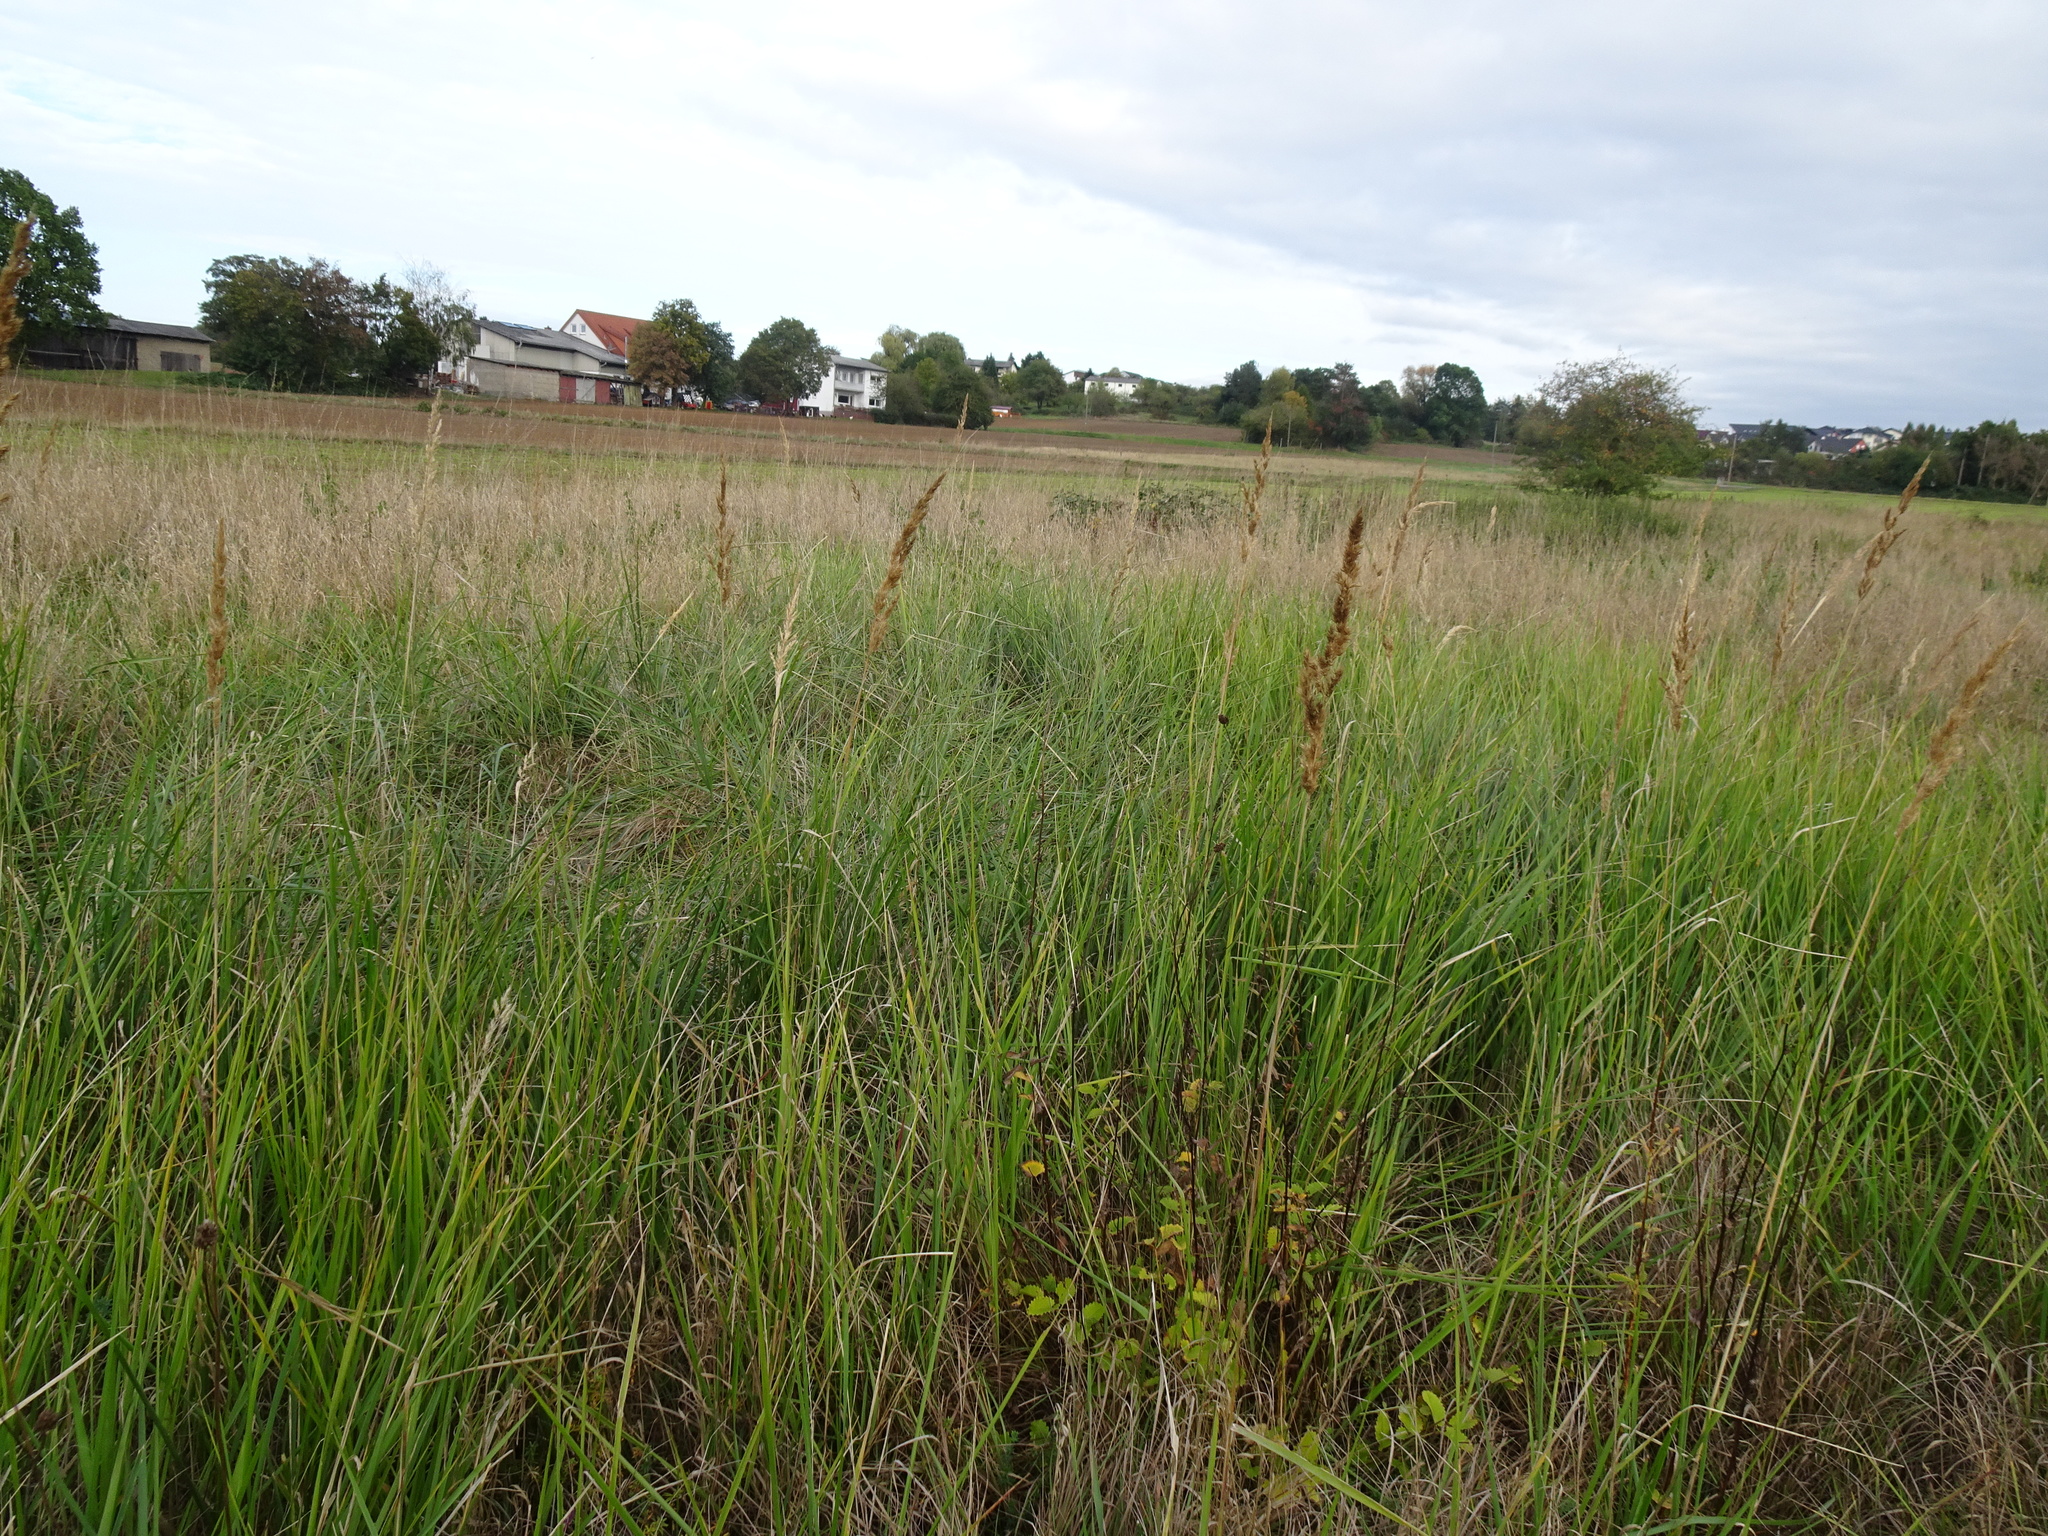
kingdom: Plantae
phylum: Tracheophyta
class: Liliopsida
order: Poales
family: Poaceae
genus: Calamagrostis
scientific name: Calamagrostis epigejos
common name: Wood small-reed
